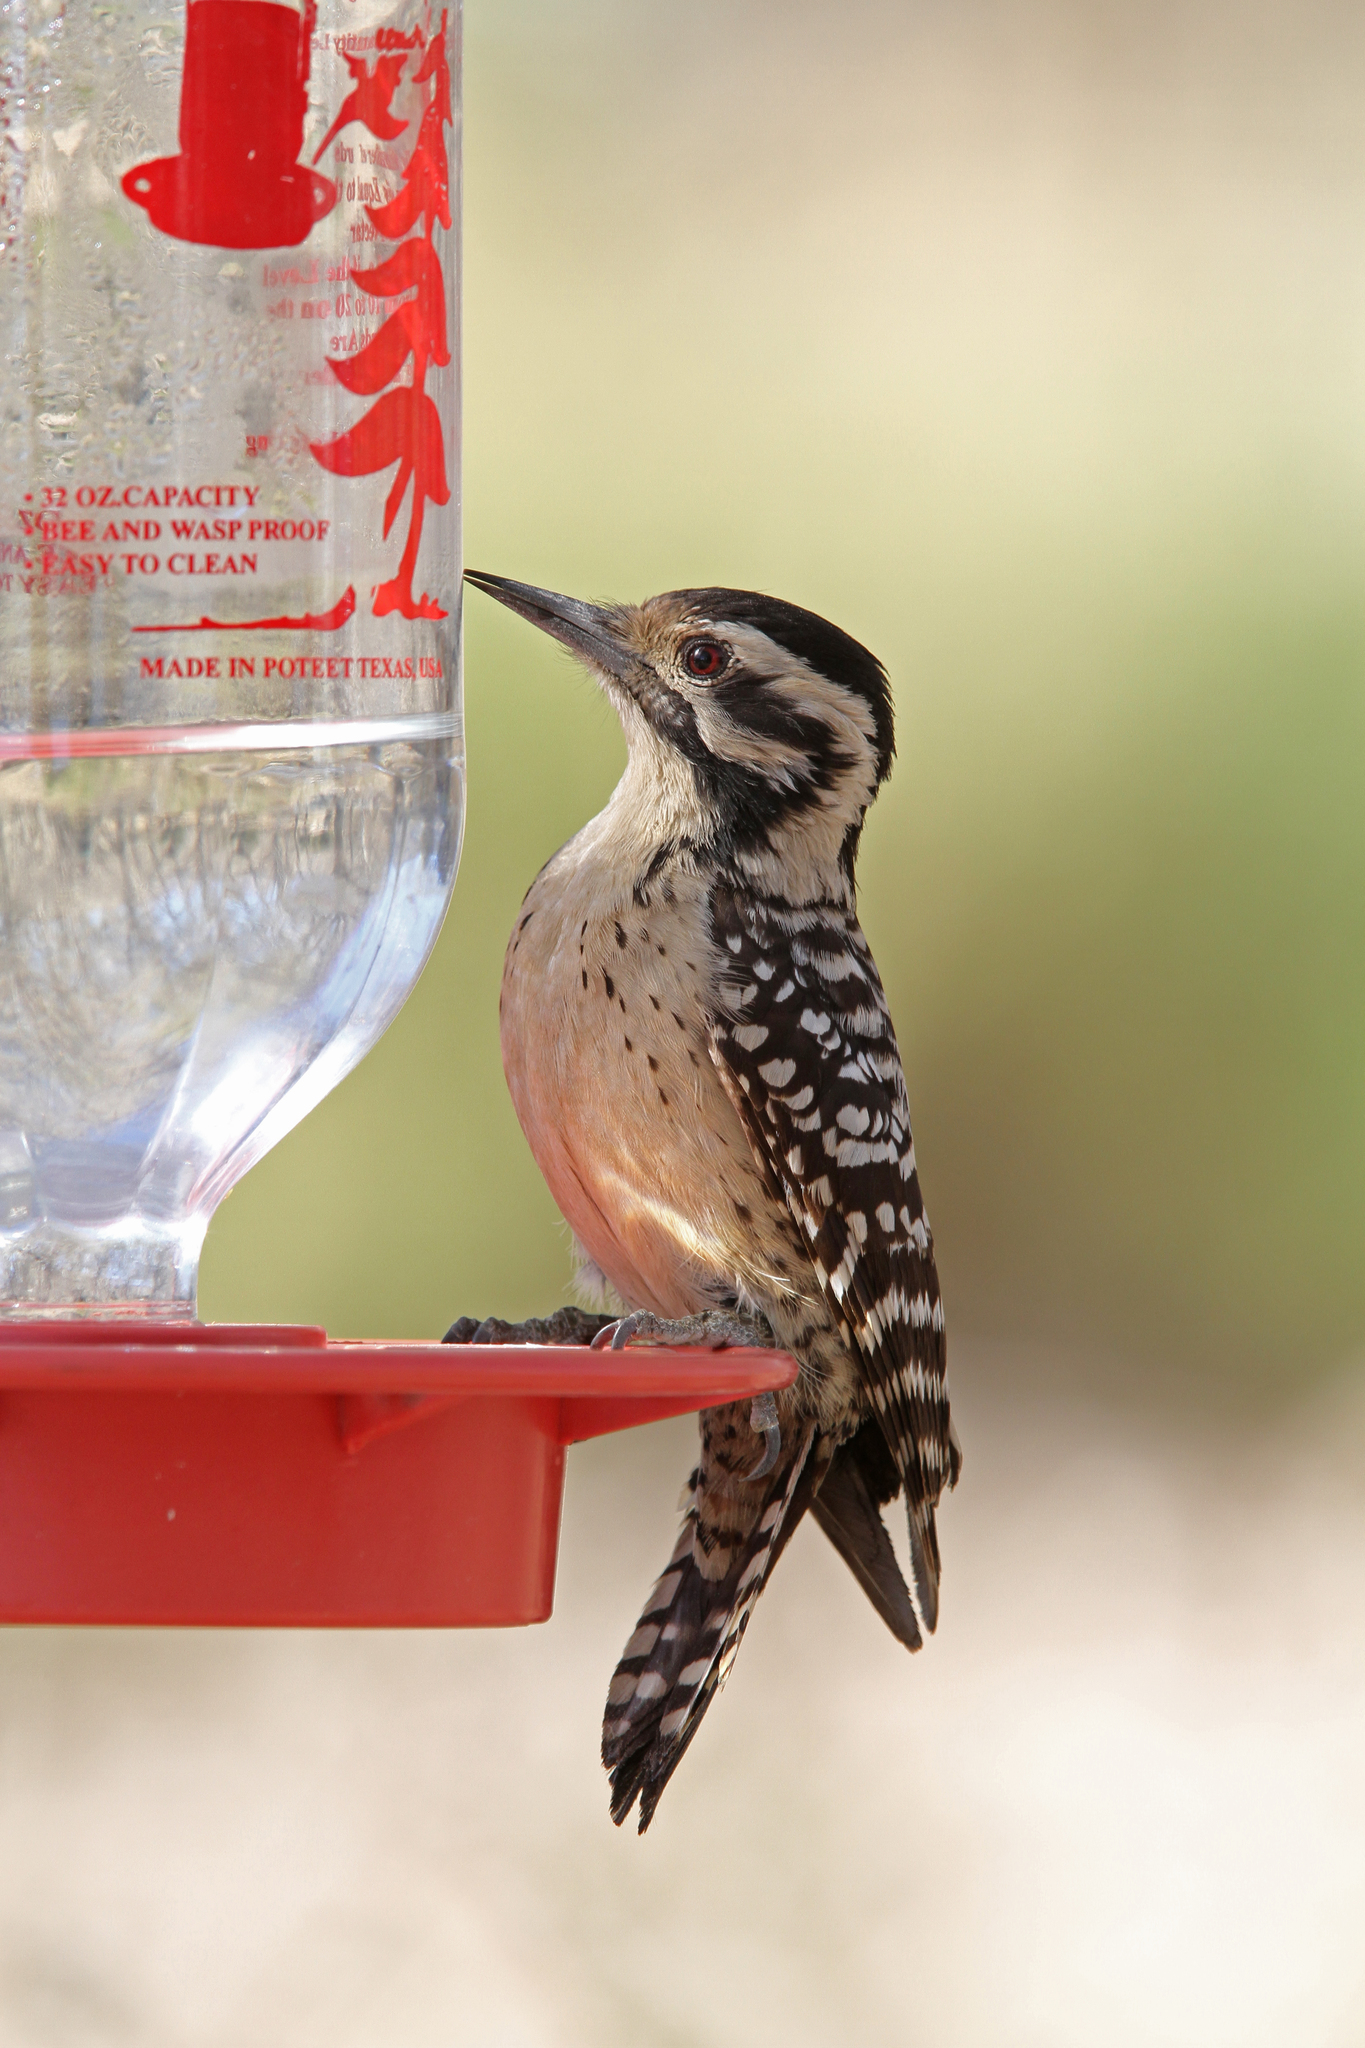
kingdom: Animalia
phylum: Chordata
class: Aves
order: Piciformes
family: Picidae
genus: Dryobates
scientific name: Dryobates scalaris
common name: Ladder-backed woodpecker
